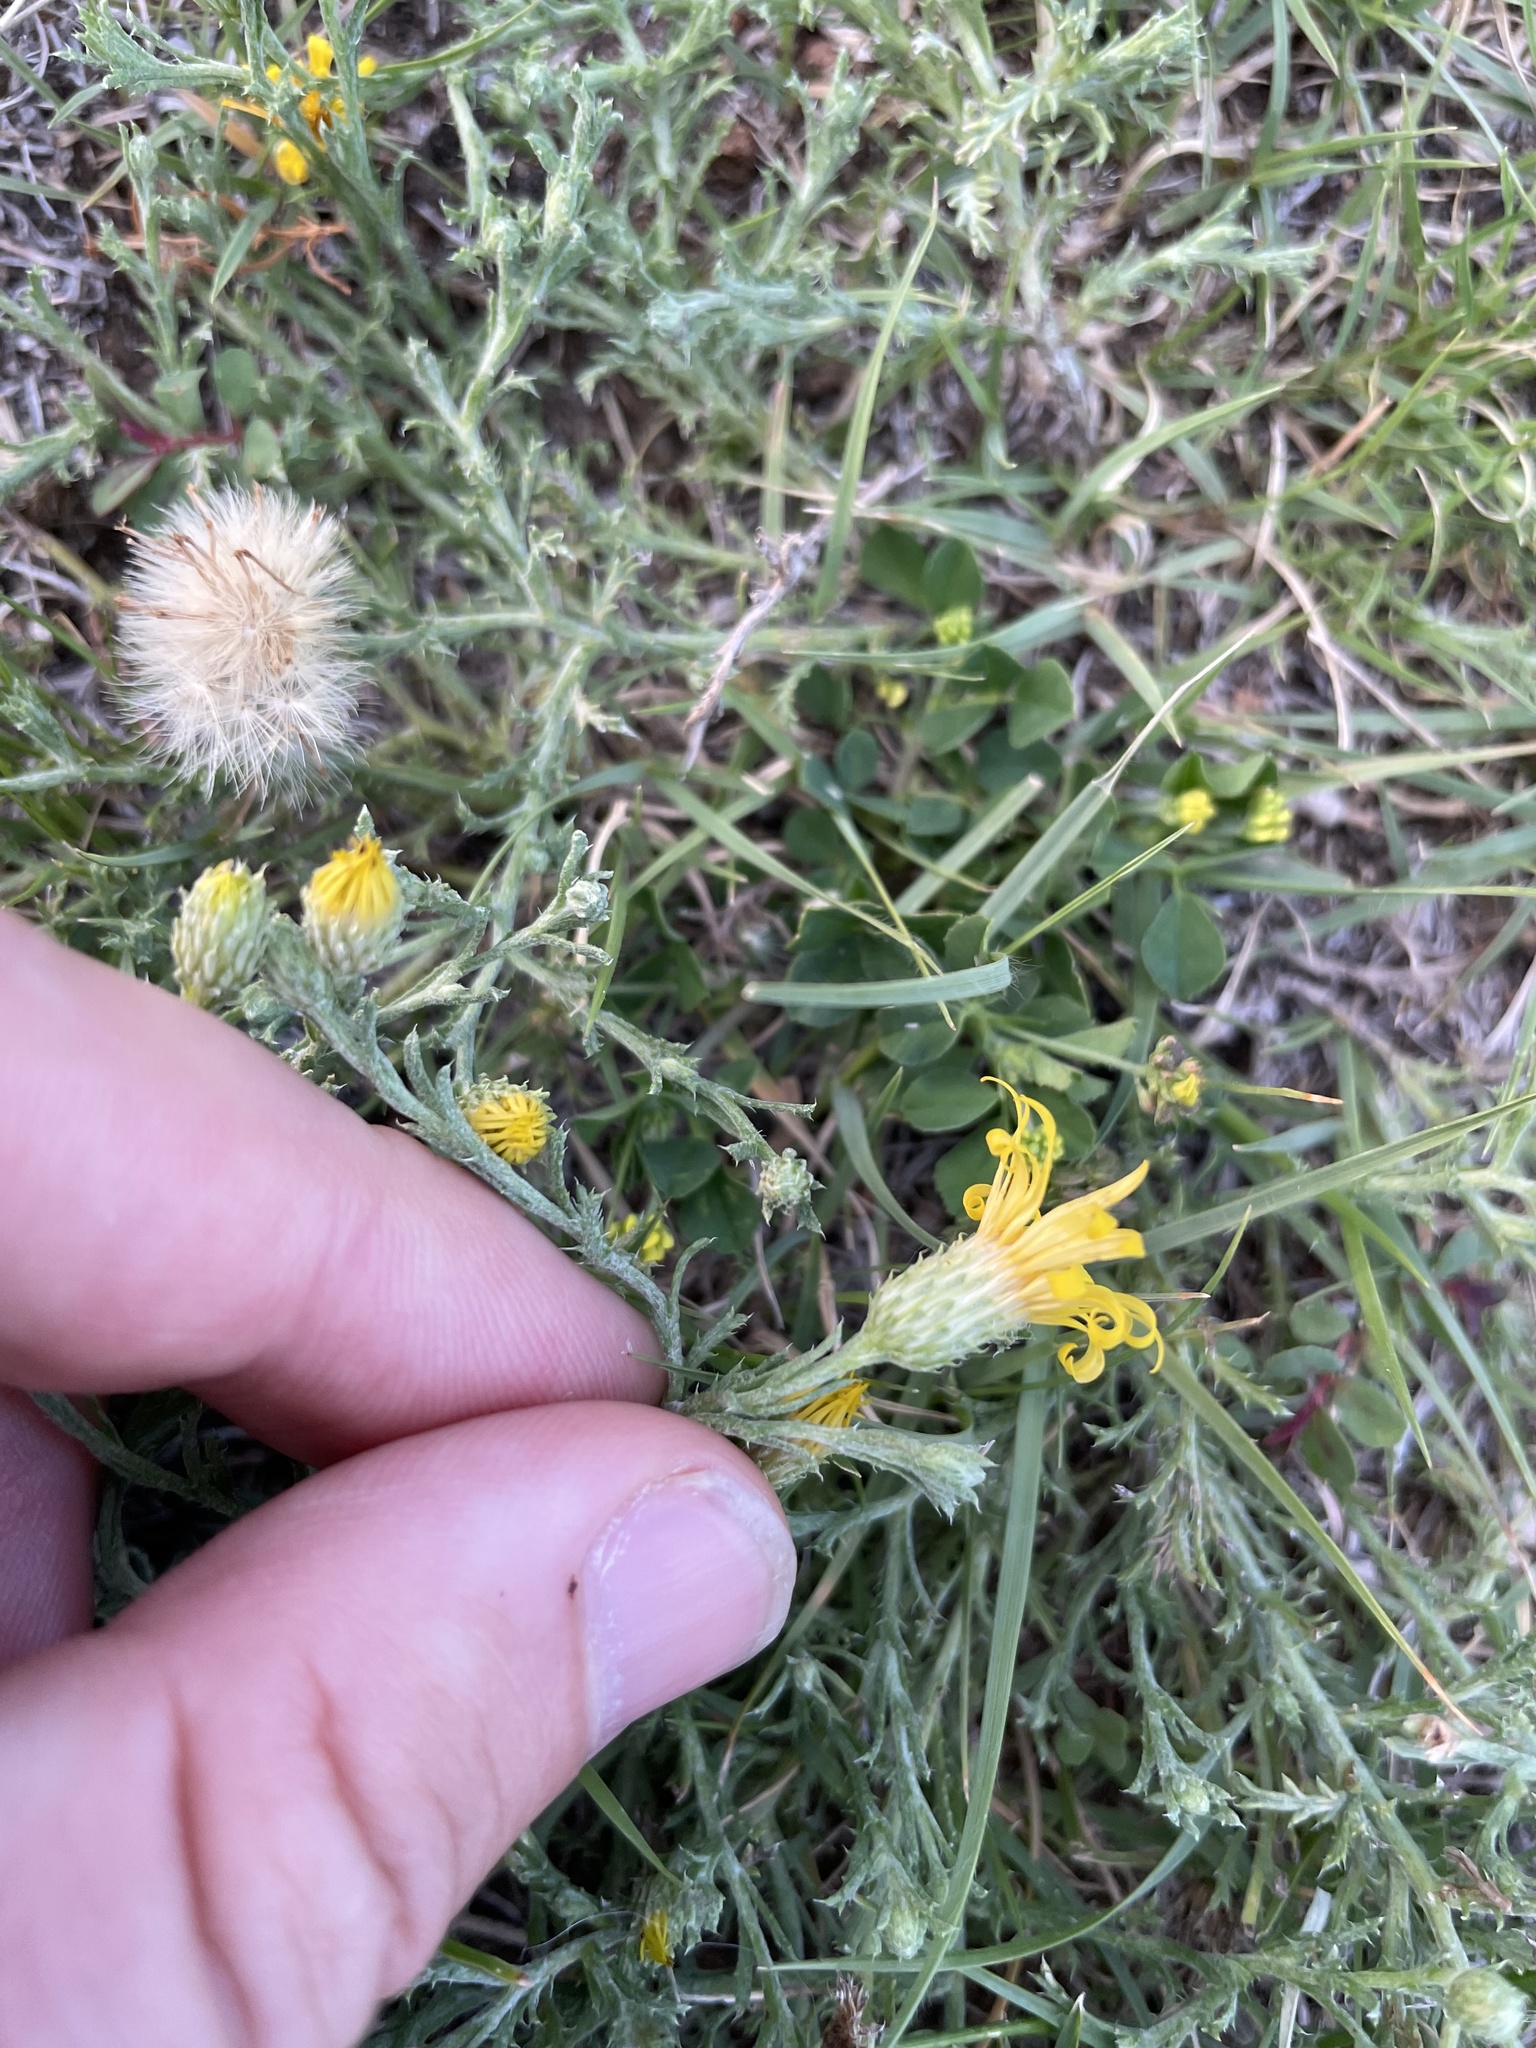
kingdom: Plantae
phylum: Tracheophyta
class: Magnoliopsida
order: Asterales
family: Asteraceae
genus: Xanthisma
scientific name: Xanthisma spinulosum
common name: Spiny goldenweed
